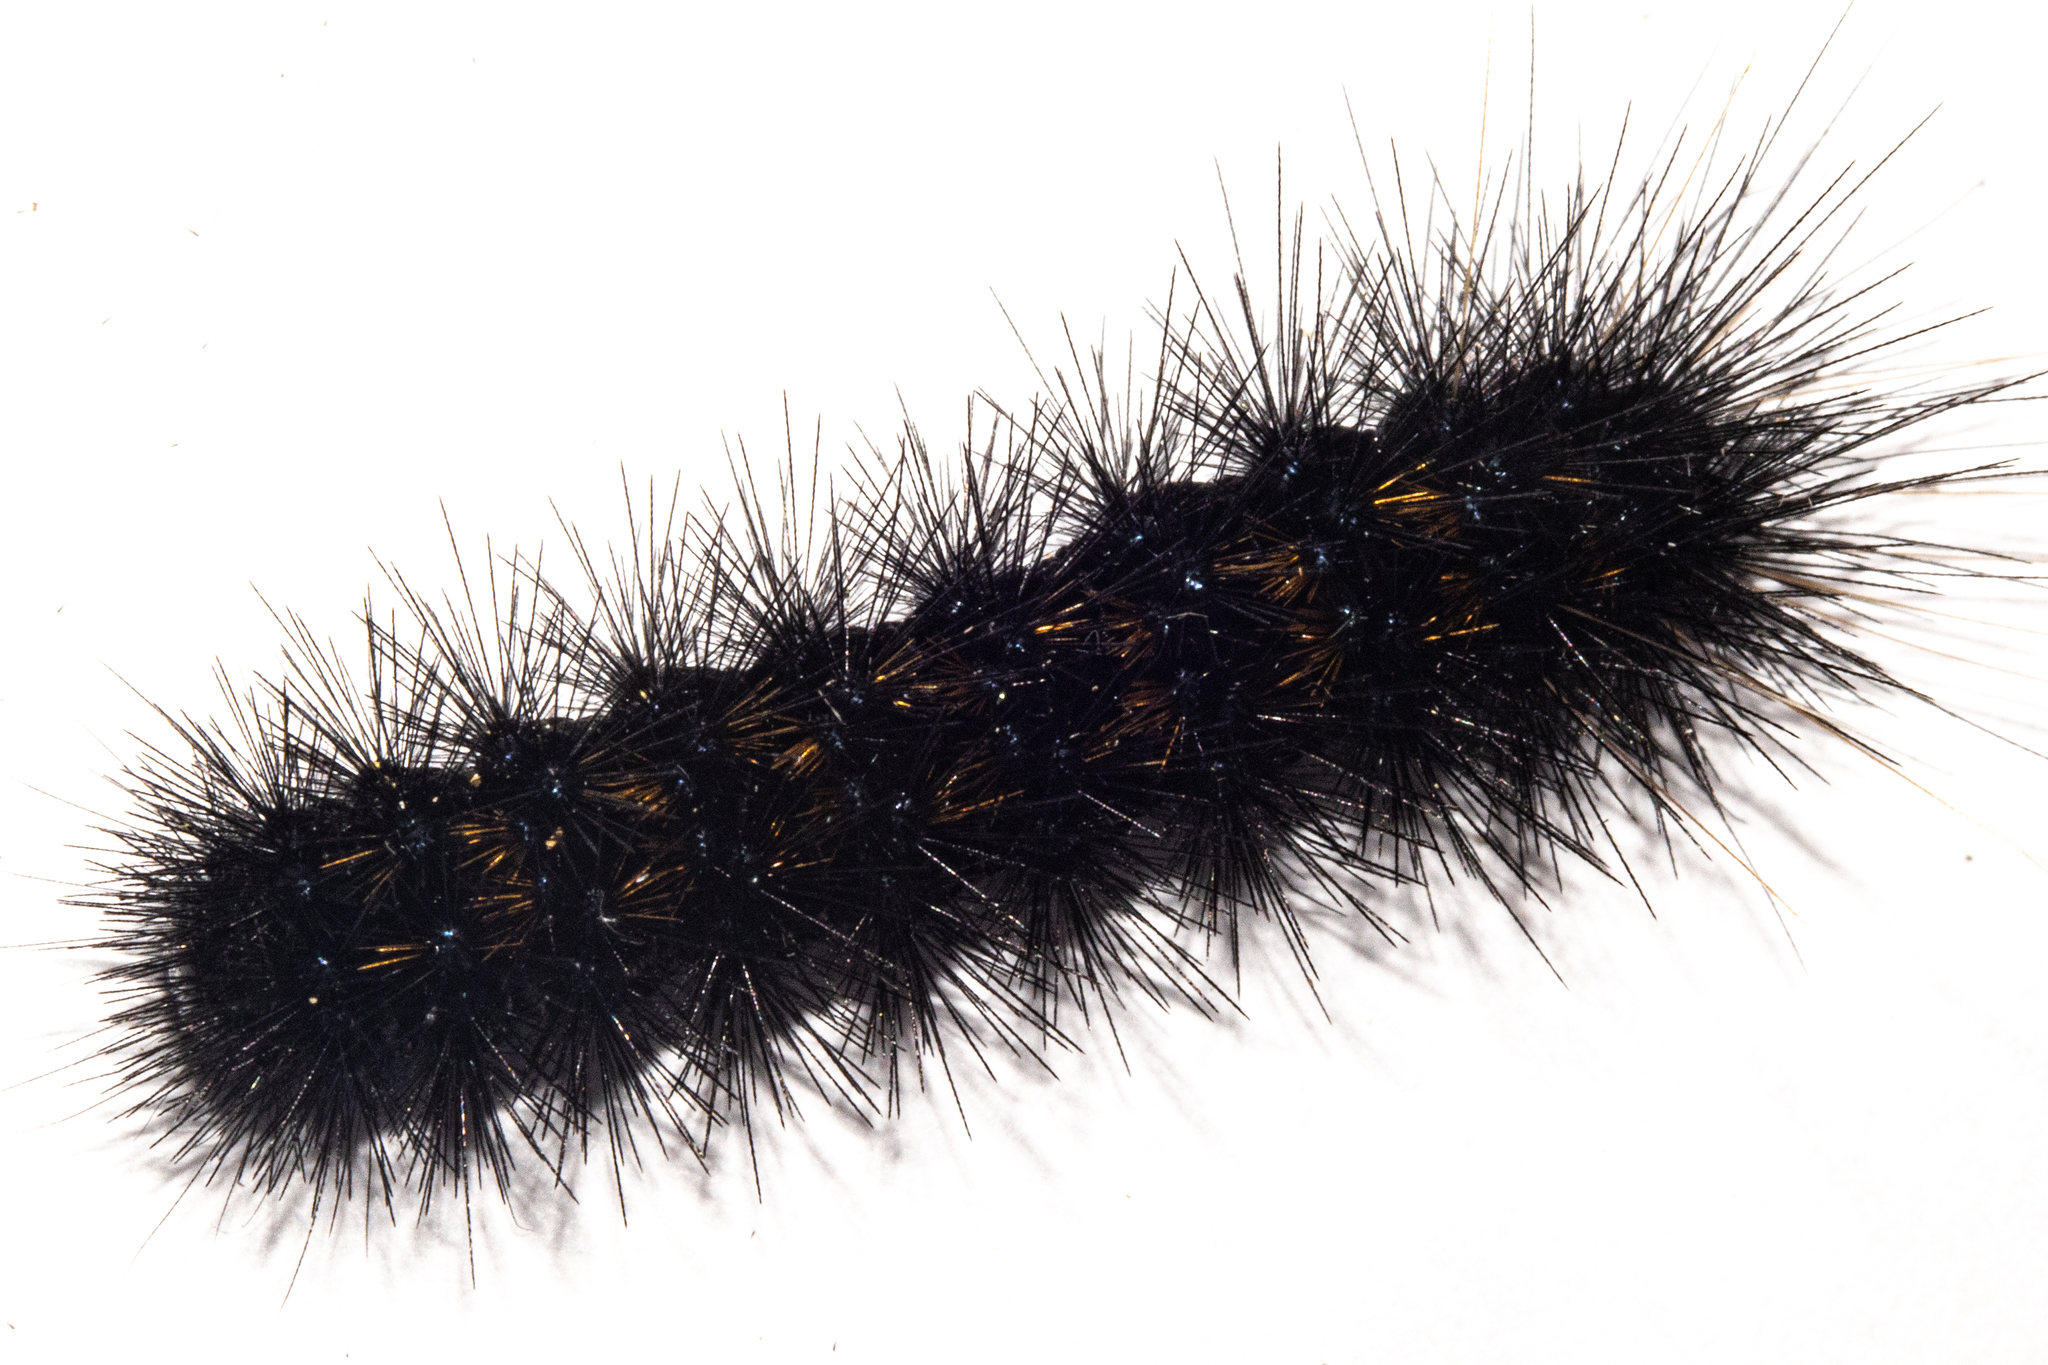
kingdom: Animalia
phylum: Arthropoda
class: Insecta
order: Lepidoptera
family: Erebidae
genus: Metacrias
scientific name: Metacrias erichrysa
